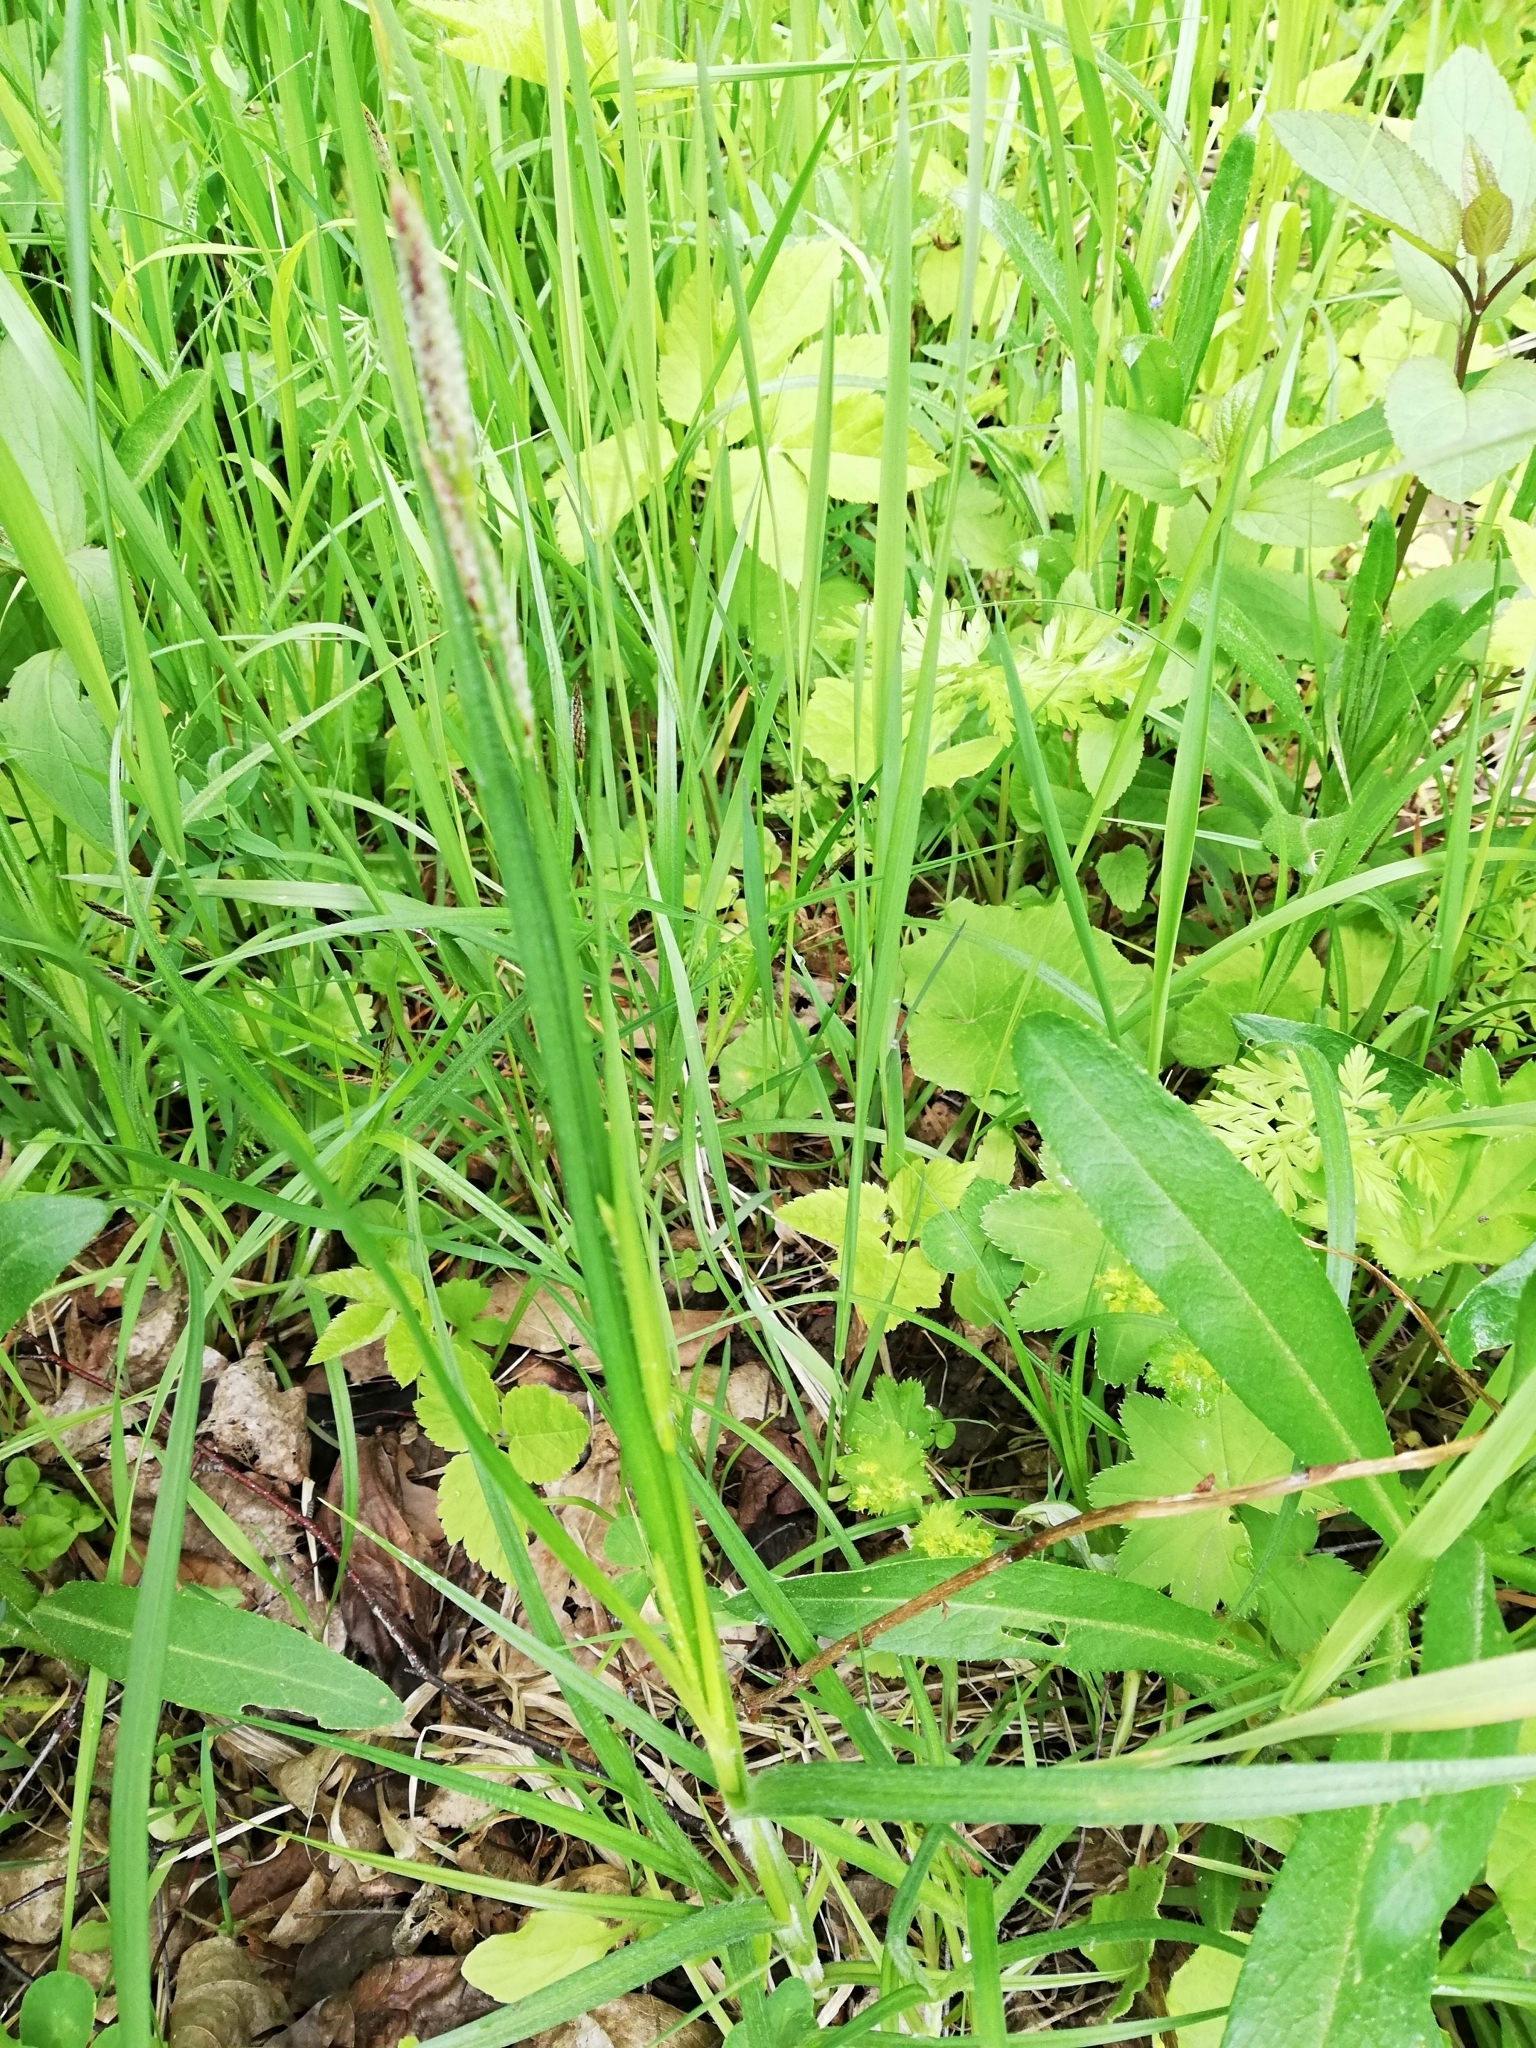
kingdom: Plantae
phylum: Tracheophyta
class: Liliopsida
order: Poales
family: Cyperaceae
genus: Carex
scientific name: Carex hirta
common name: Hairy sedge
